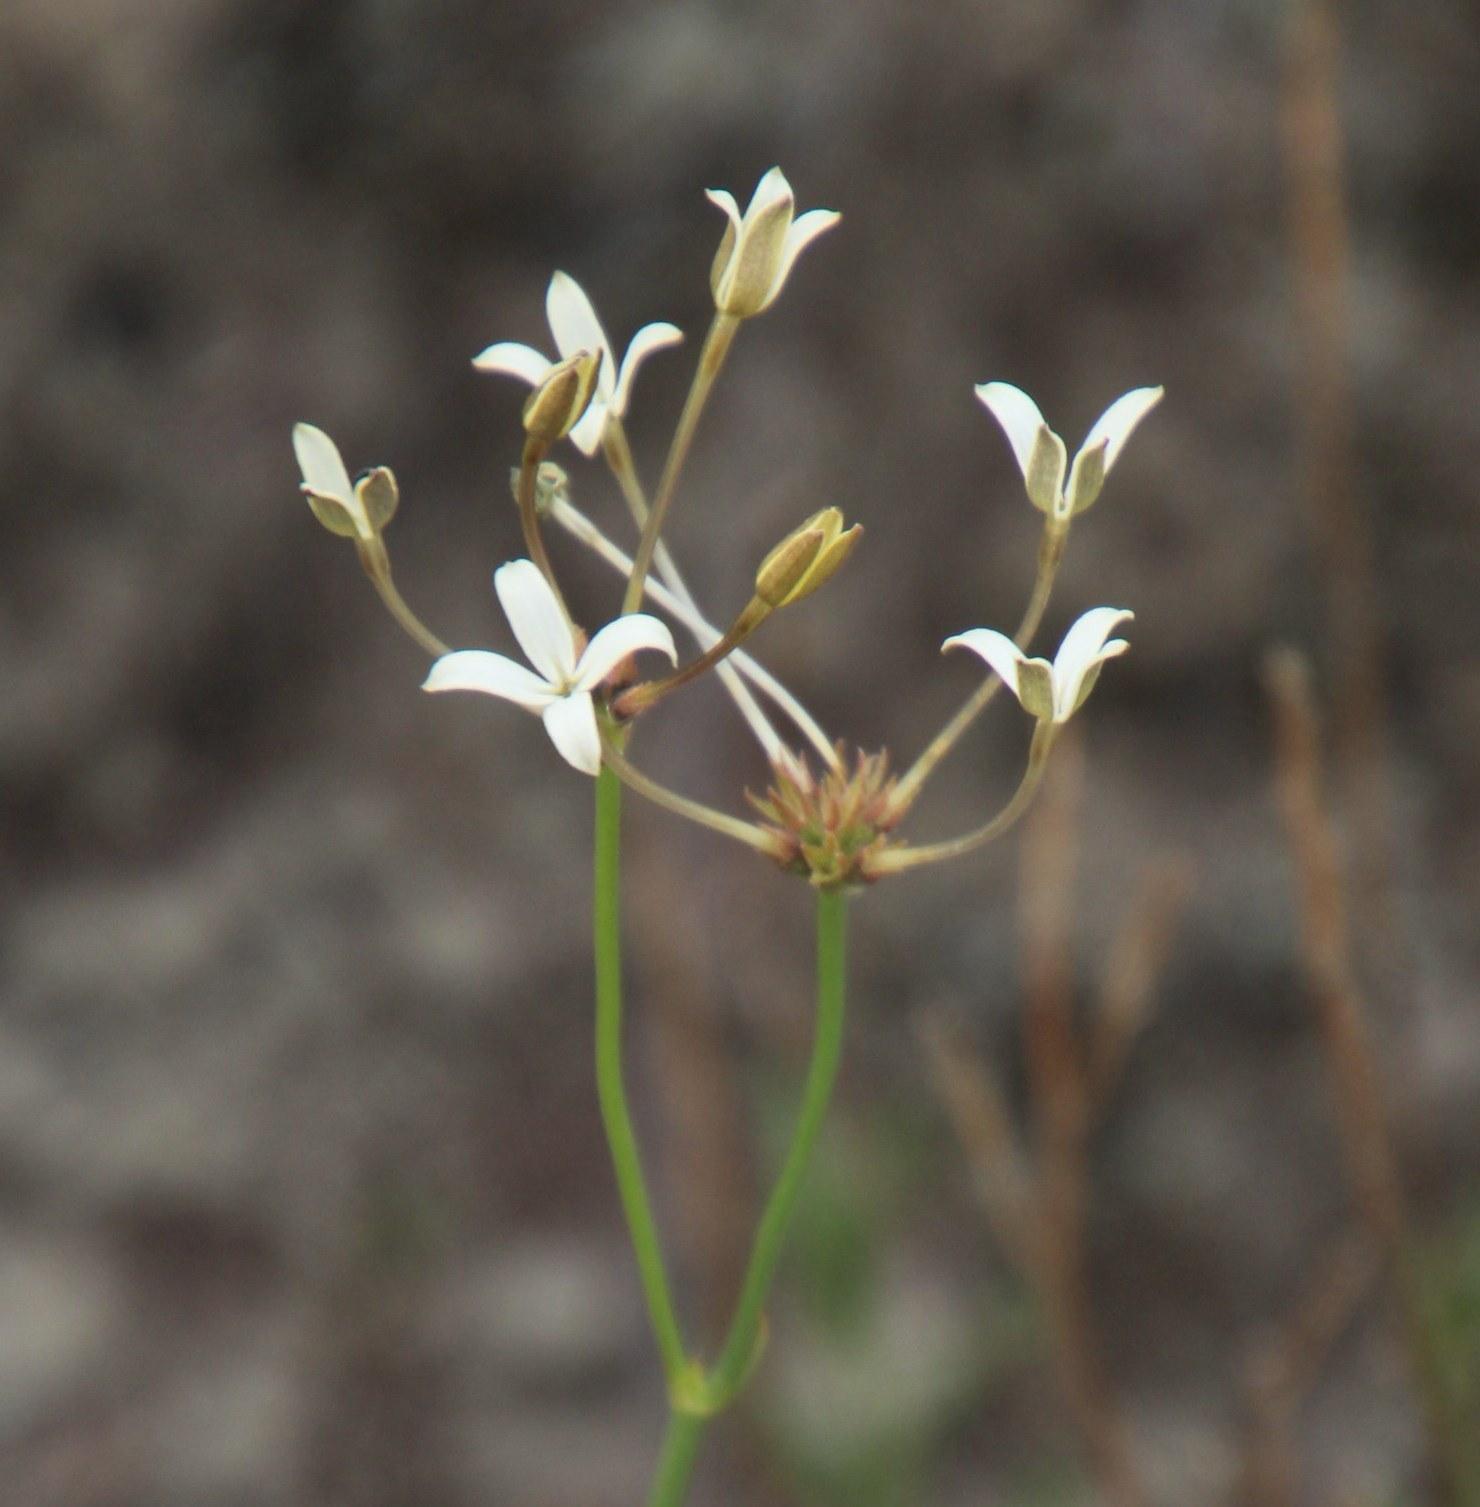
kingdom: Plantae
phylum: Tracheophyta
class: Magnoliopsida
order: Gentianales
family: Rubiaceae
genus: Kohautia
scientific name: Kohautia amatymbica
